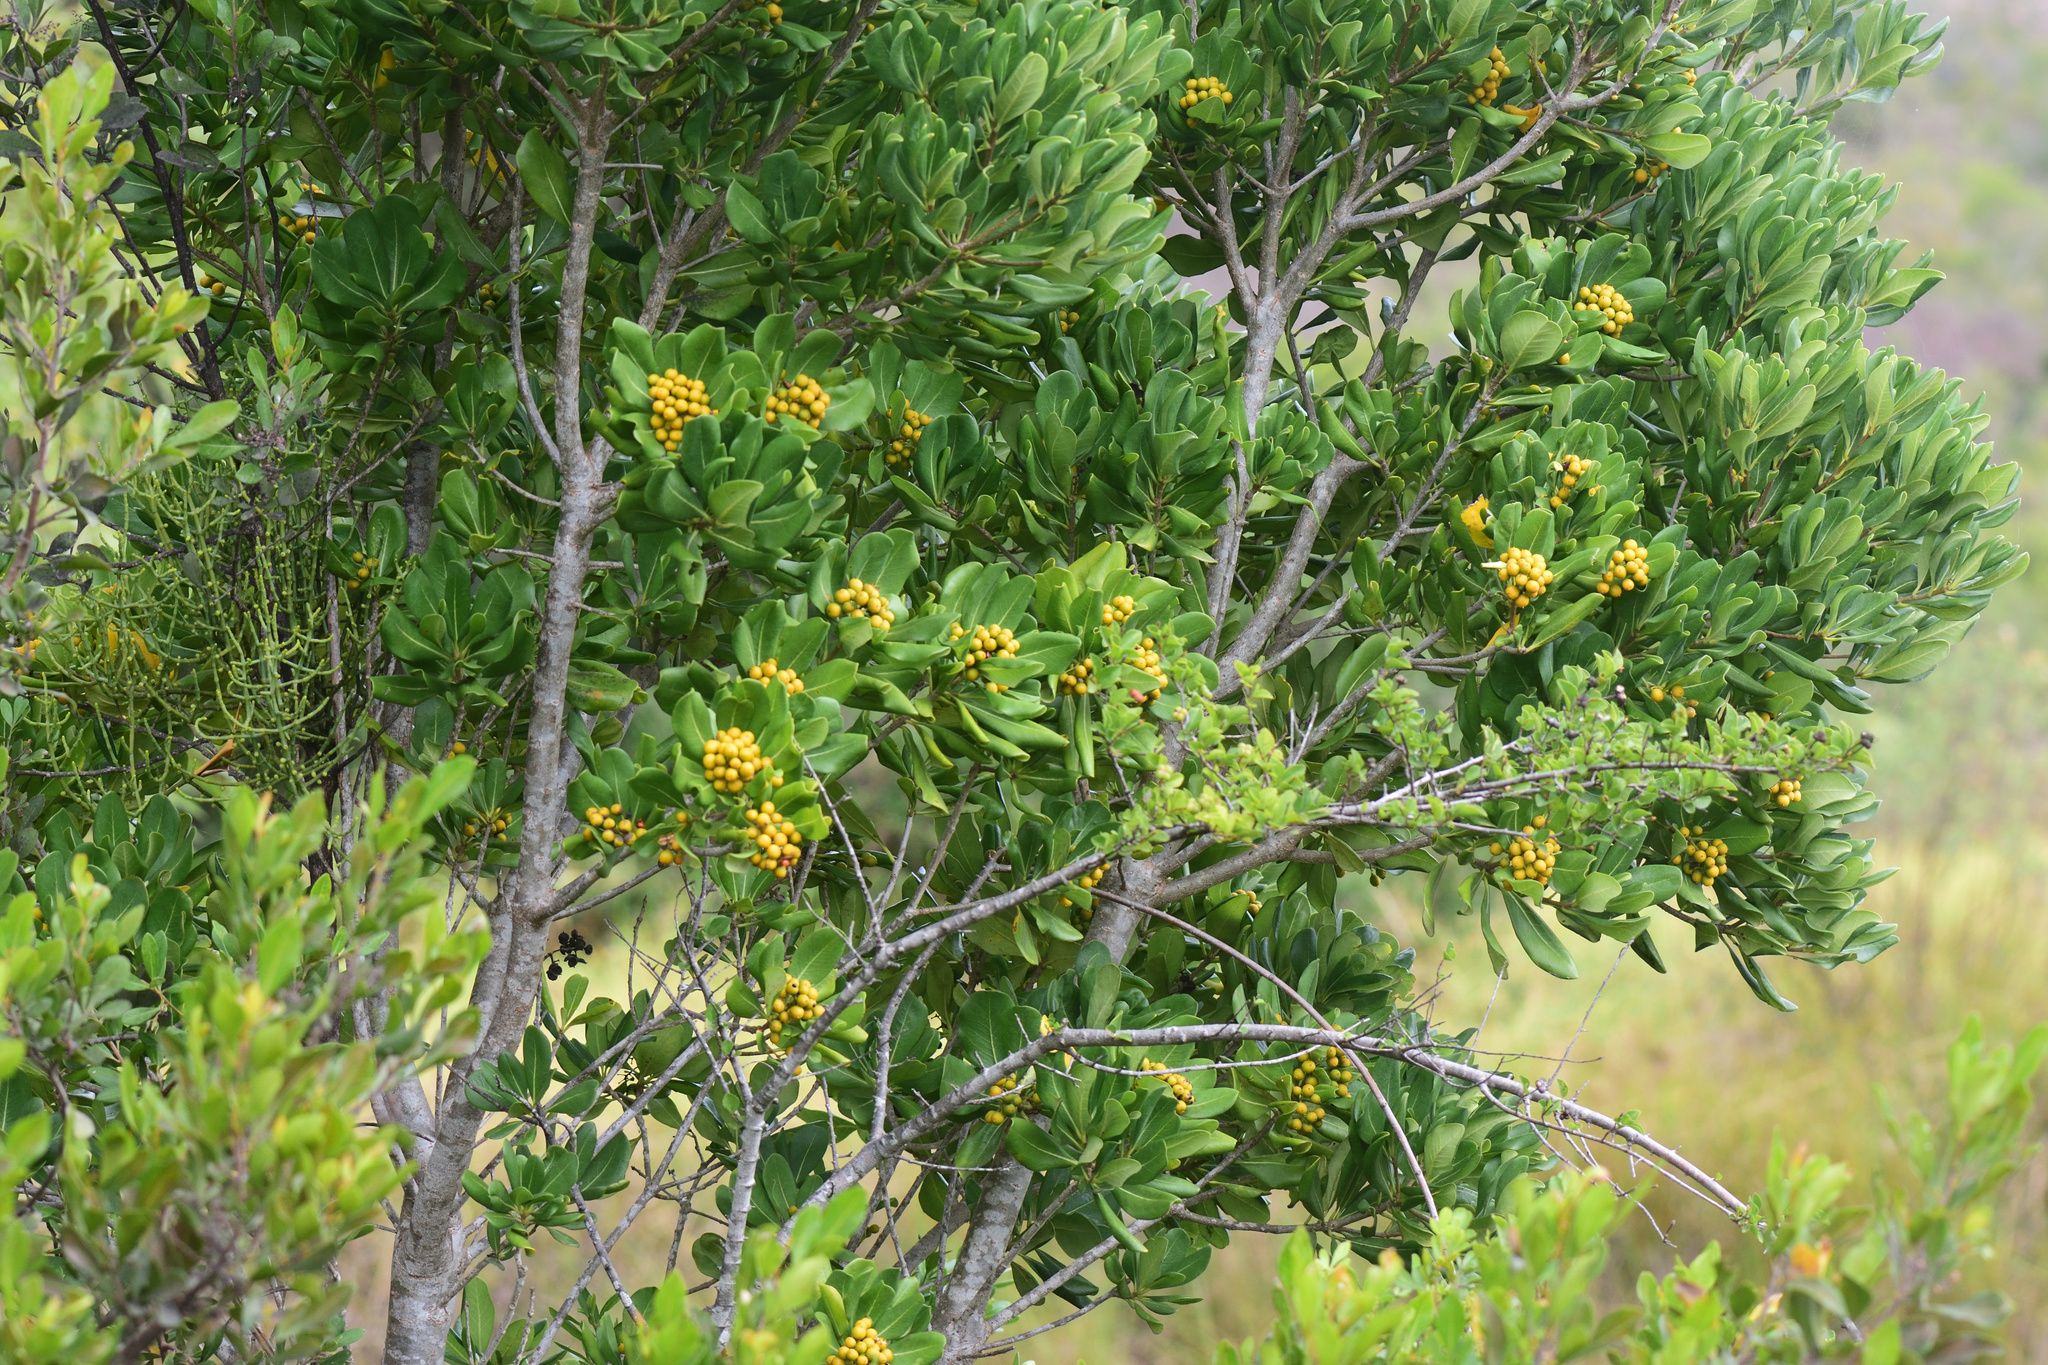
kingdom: Plantae
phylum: Tracheophyta
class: Magnoliopsida
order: Apiales
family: Pittosporaceae
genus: Pittosporum
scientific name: Pittosporum viridiflorum
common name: Cape cheesewood
